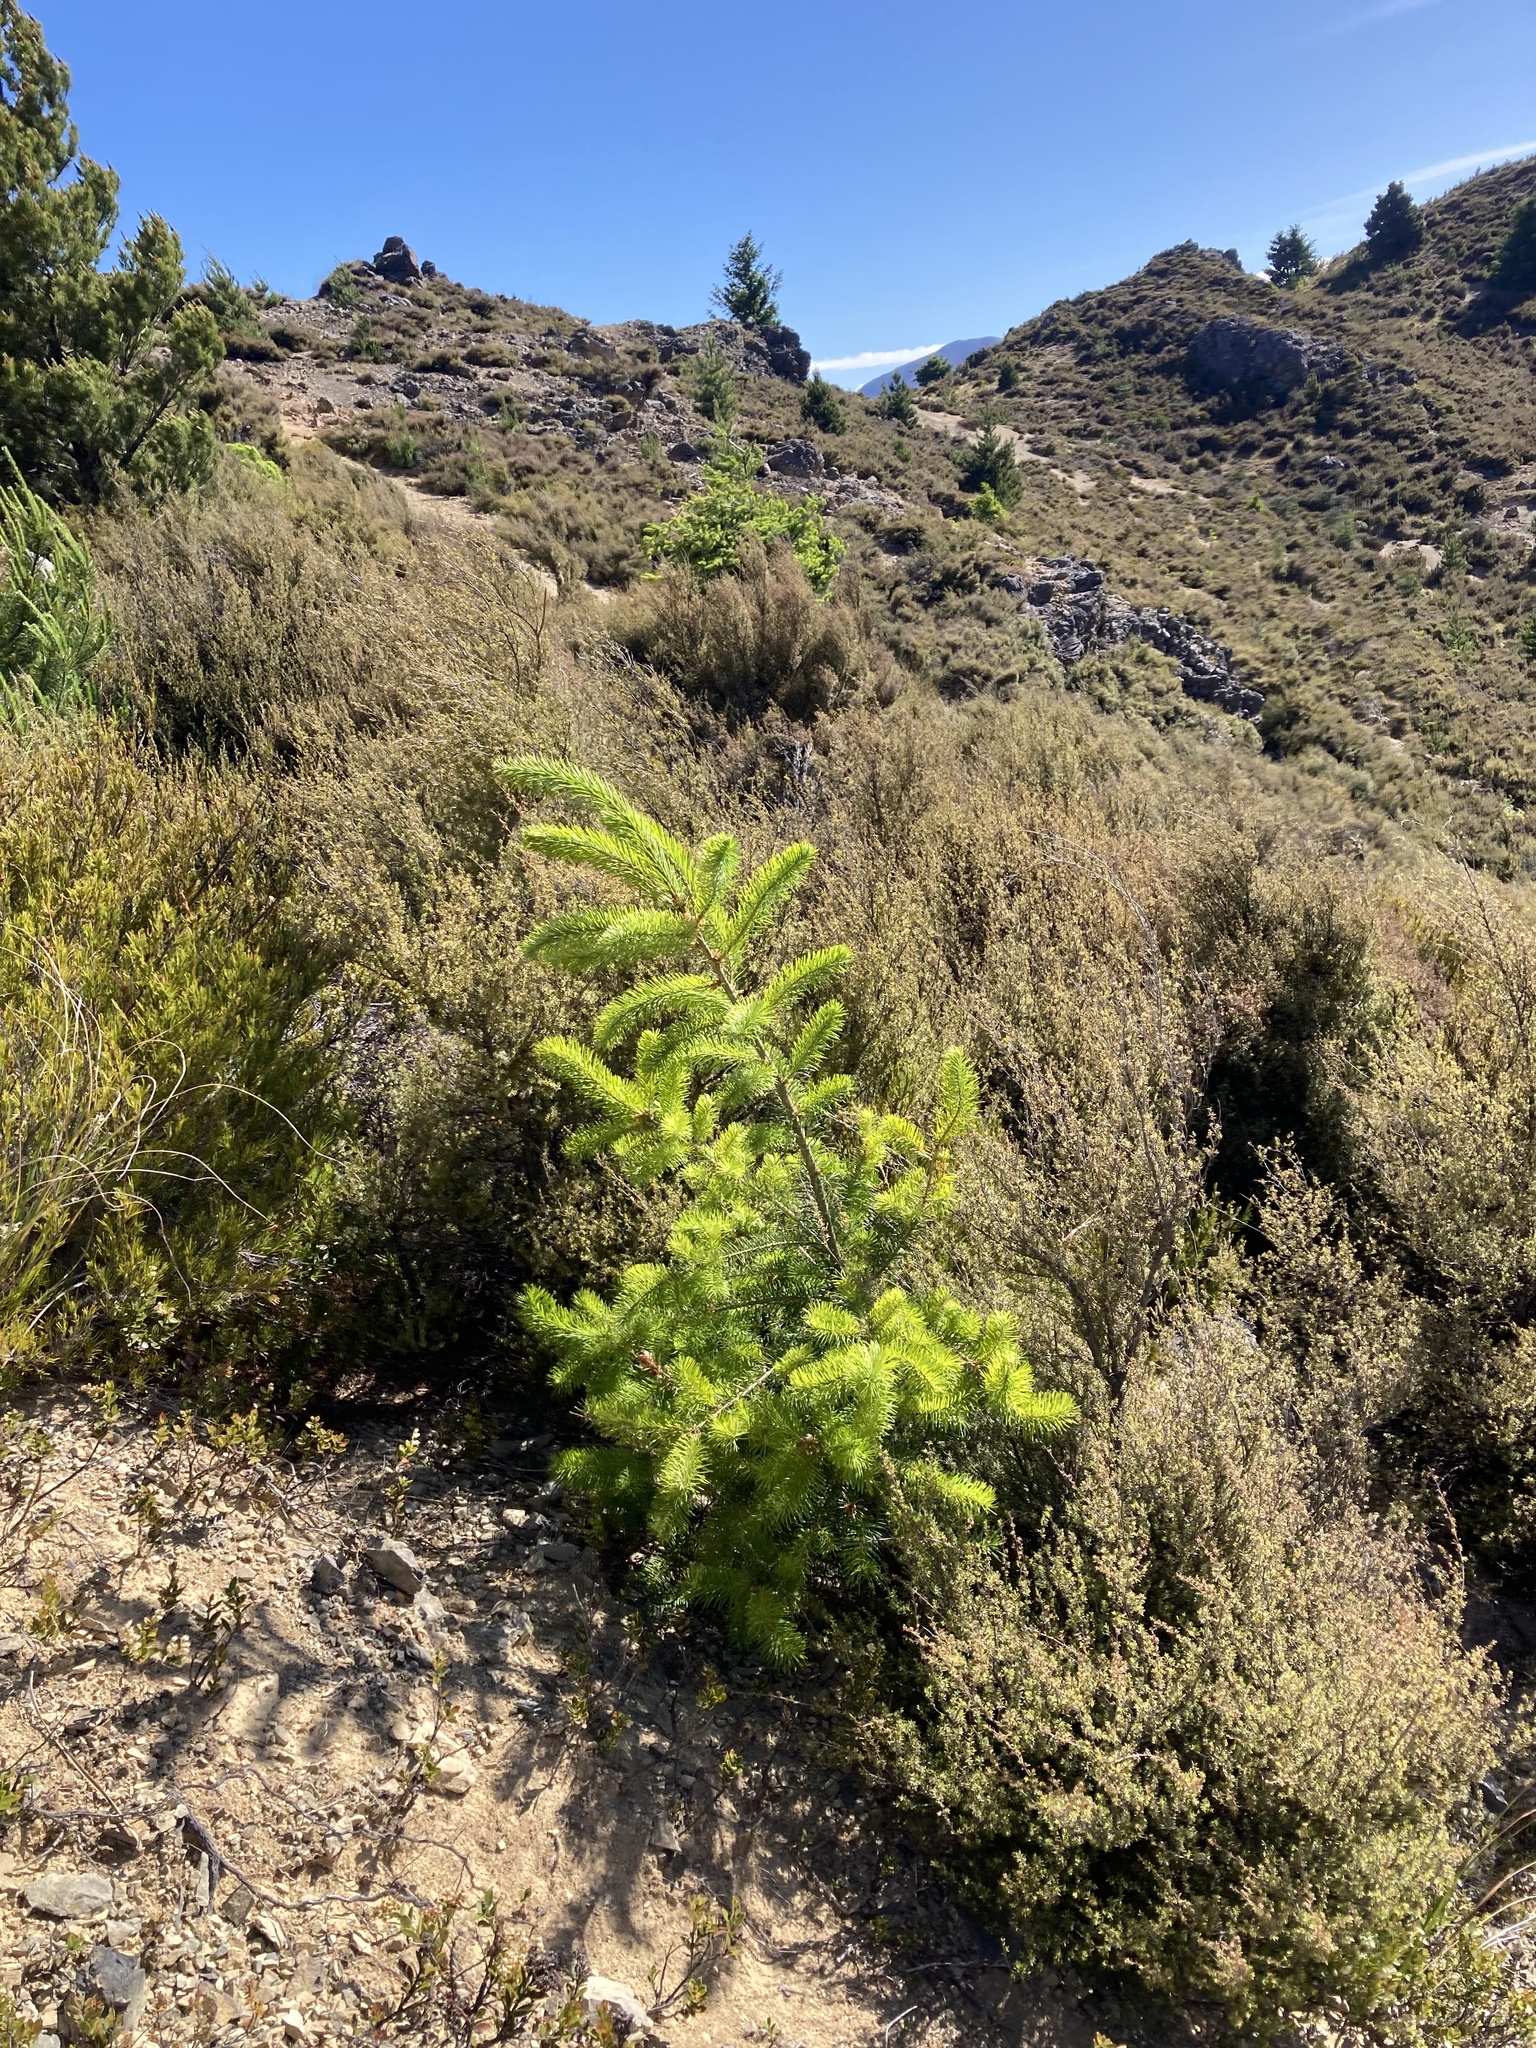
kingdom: Plantae
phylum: Tracheophyta
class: Pinopsida
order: Pinales
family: Pinaceae
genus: Pseudotsuga
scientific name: Pseudotsuga menziesii
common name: Douglas fir
